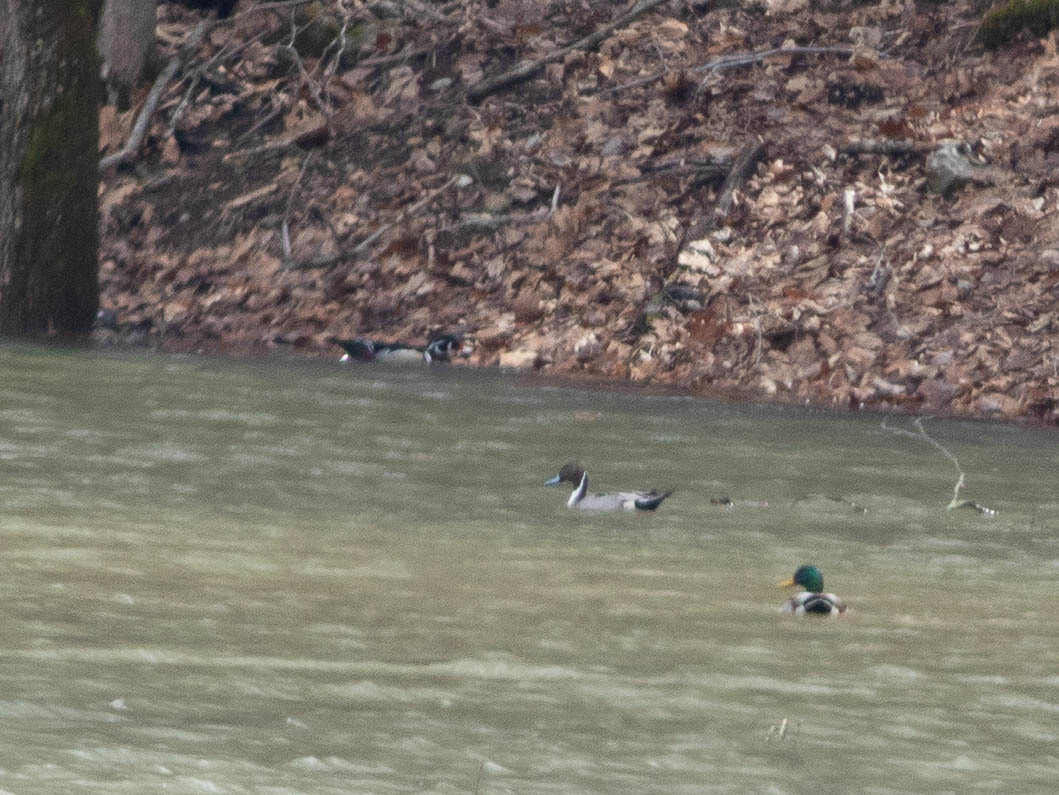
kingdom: Animalia
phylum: Chordata
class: Aves
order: Anseriformes
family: Anatidae
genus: Anas
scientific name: Anas acuta
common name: Northern pintail
